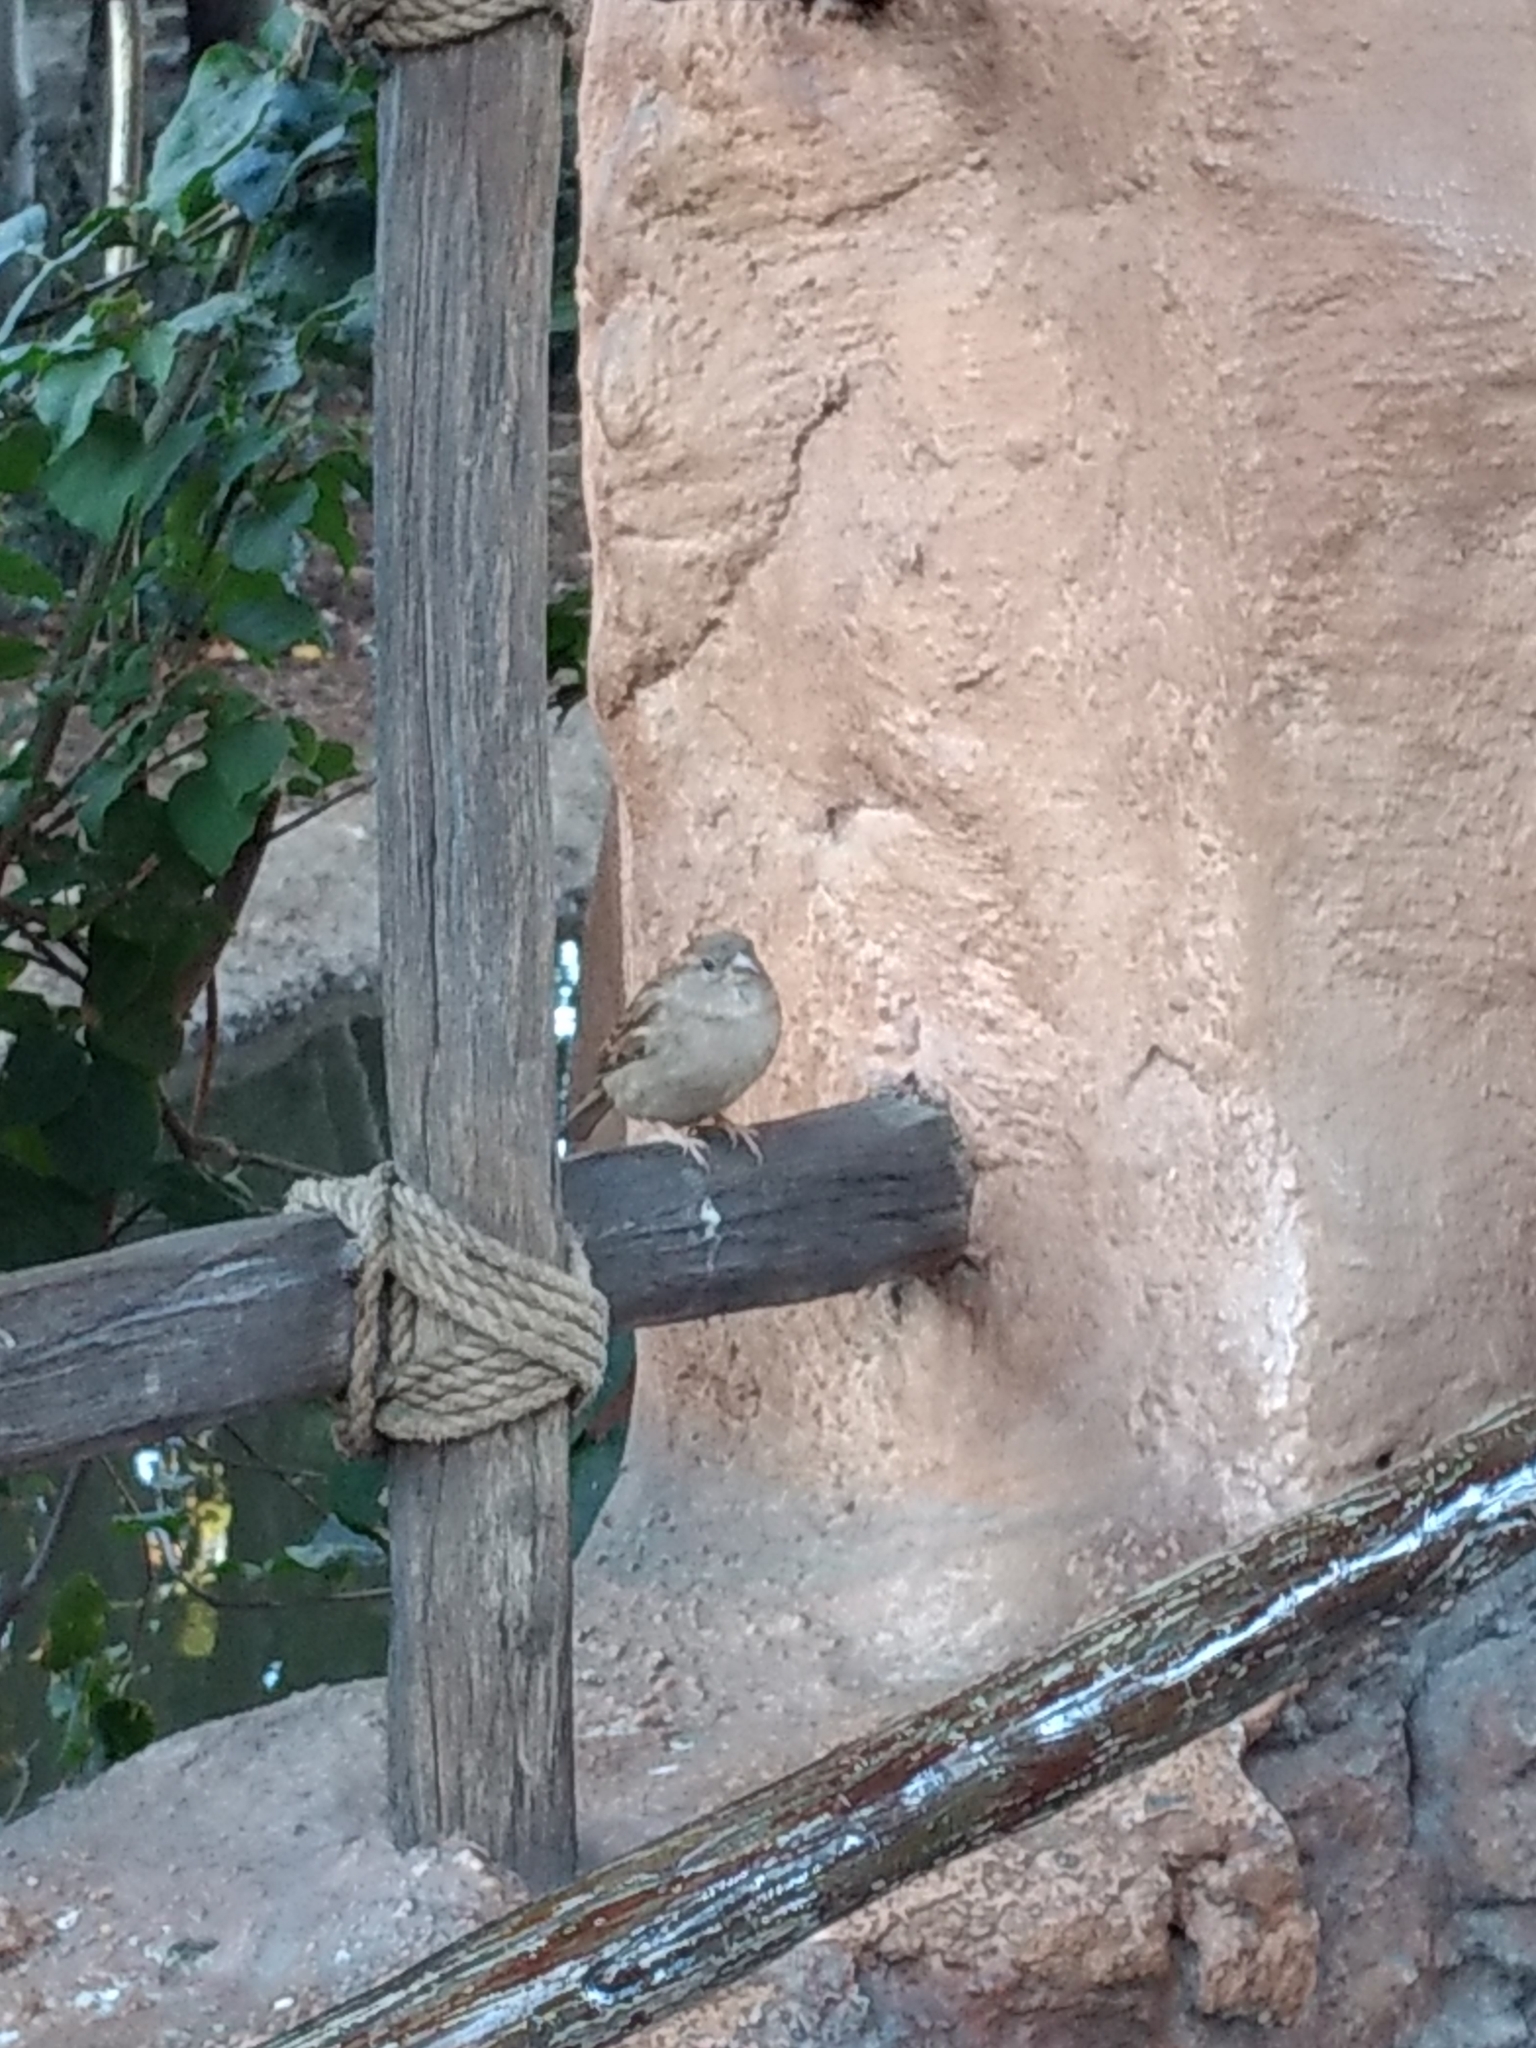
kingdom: Animalia
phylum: Chordata
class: Aves
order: Passeriformes
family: Passeridae
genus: Passer
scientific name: Passer domesticus
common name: House sparrow
